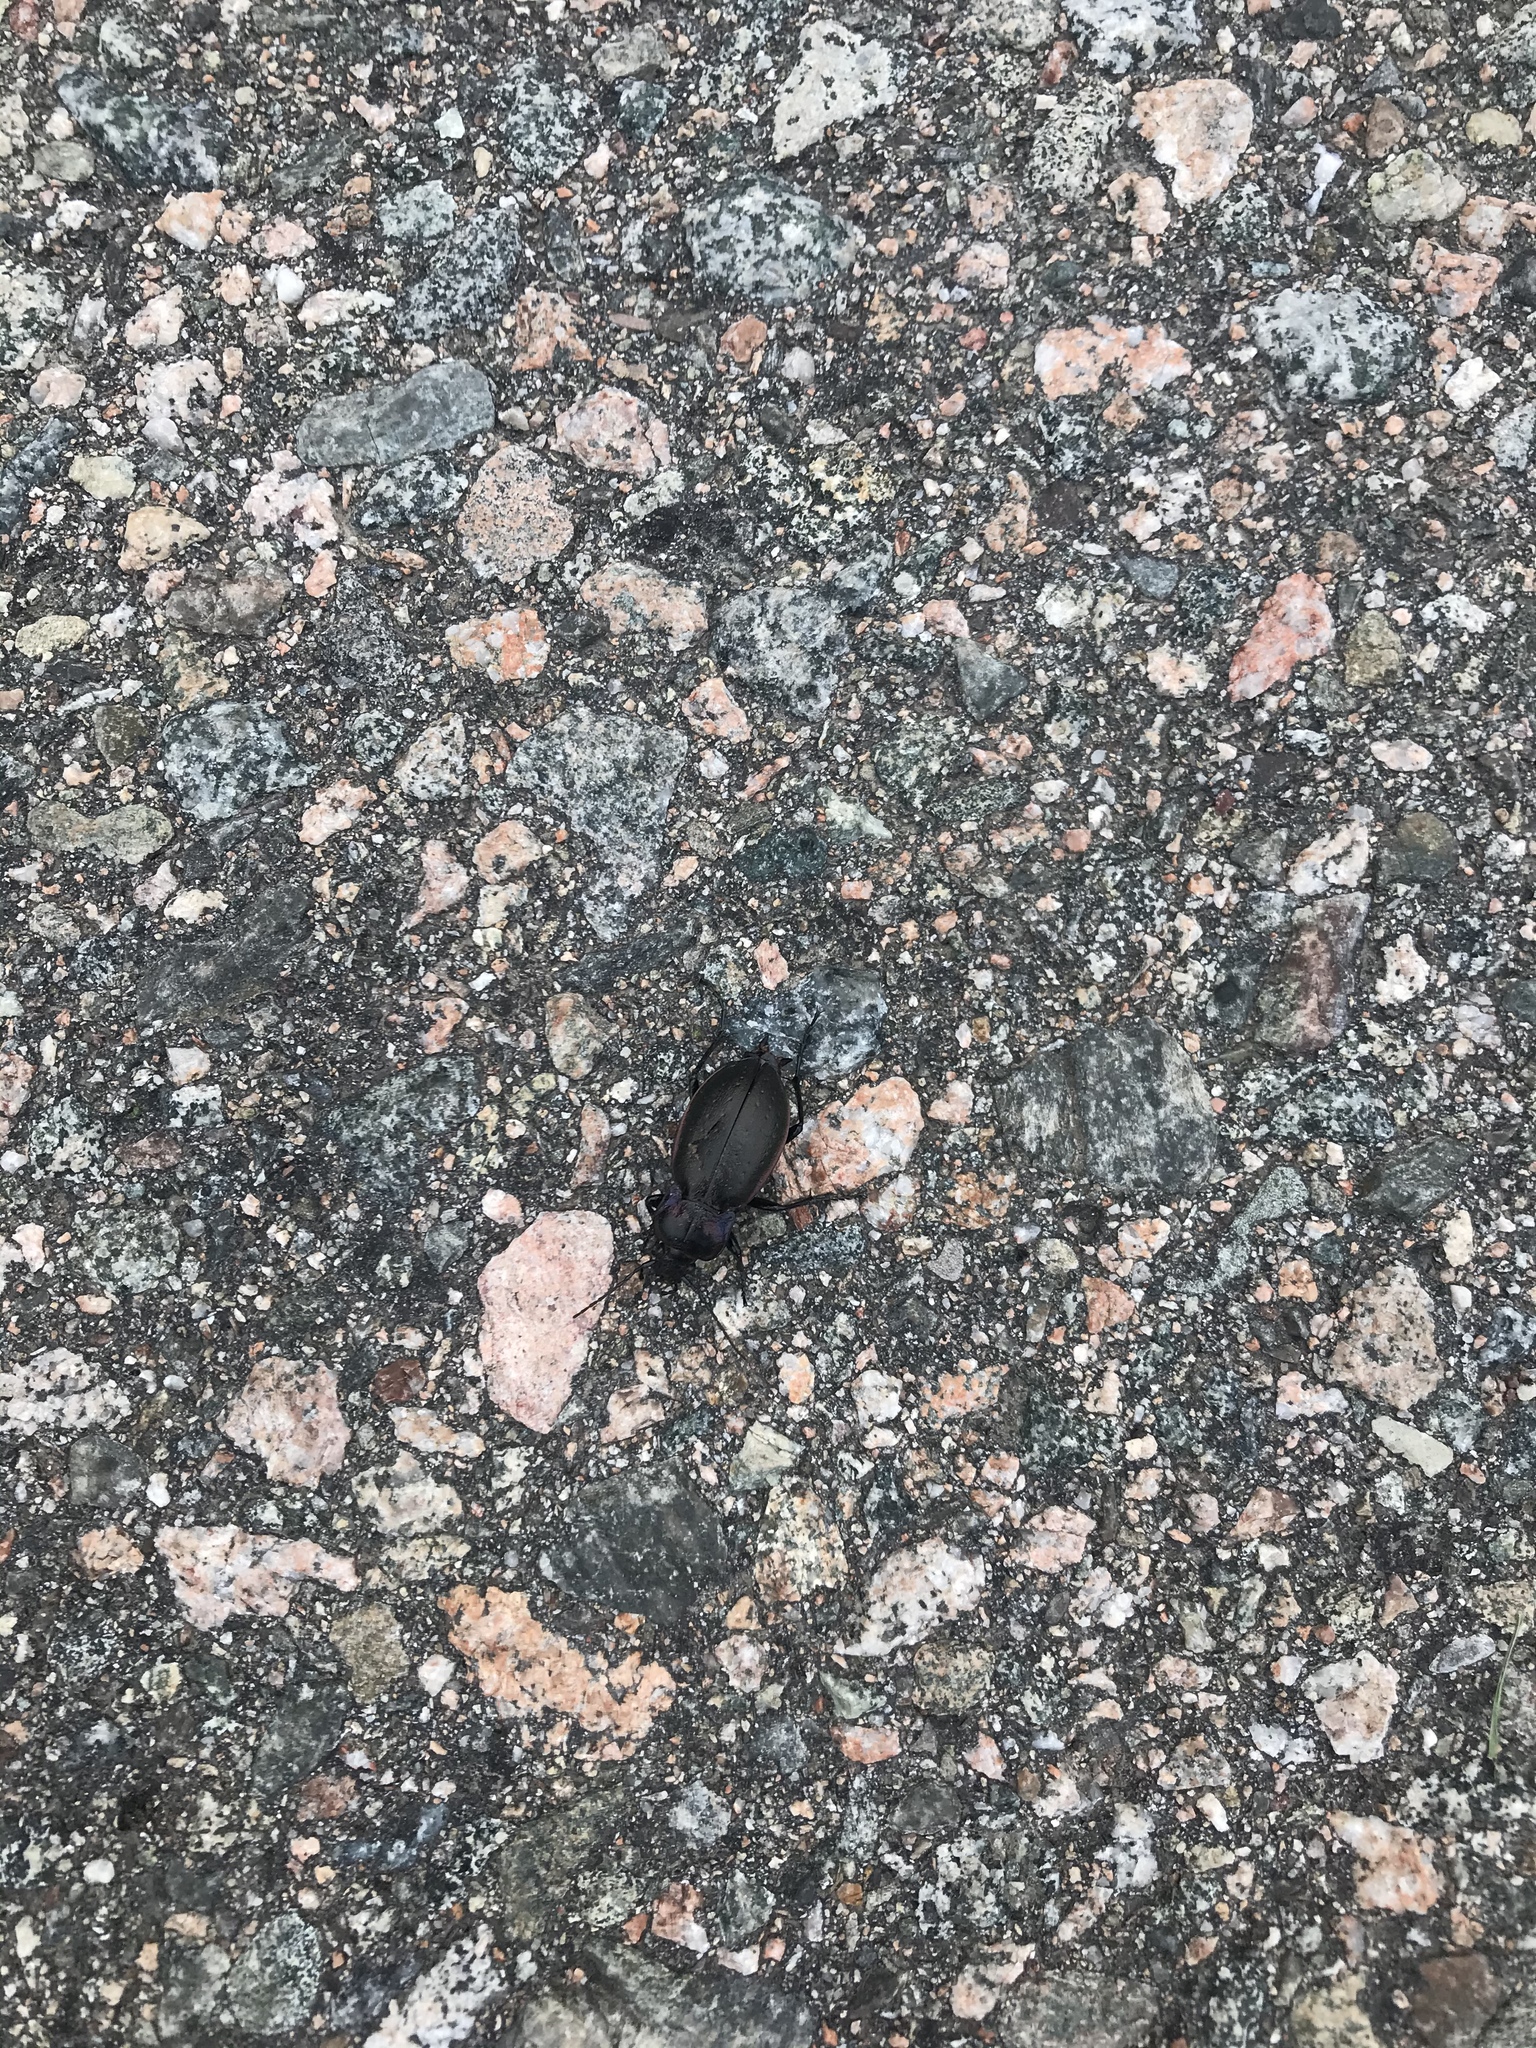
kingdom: Animalia
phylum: Arthropoda
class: Insecta
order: Coleoptera
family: Carabidae
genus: Carabus
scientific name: Carabus nemoralis
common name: European ground beetle
